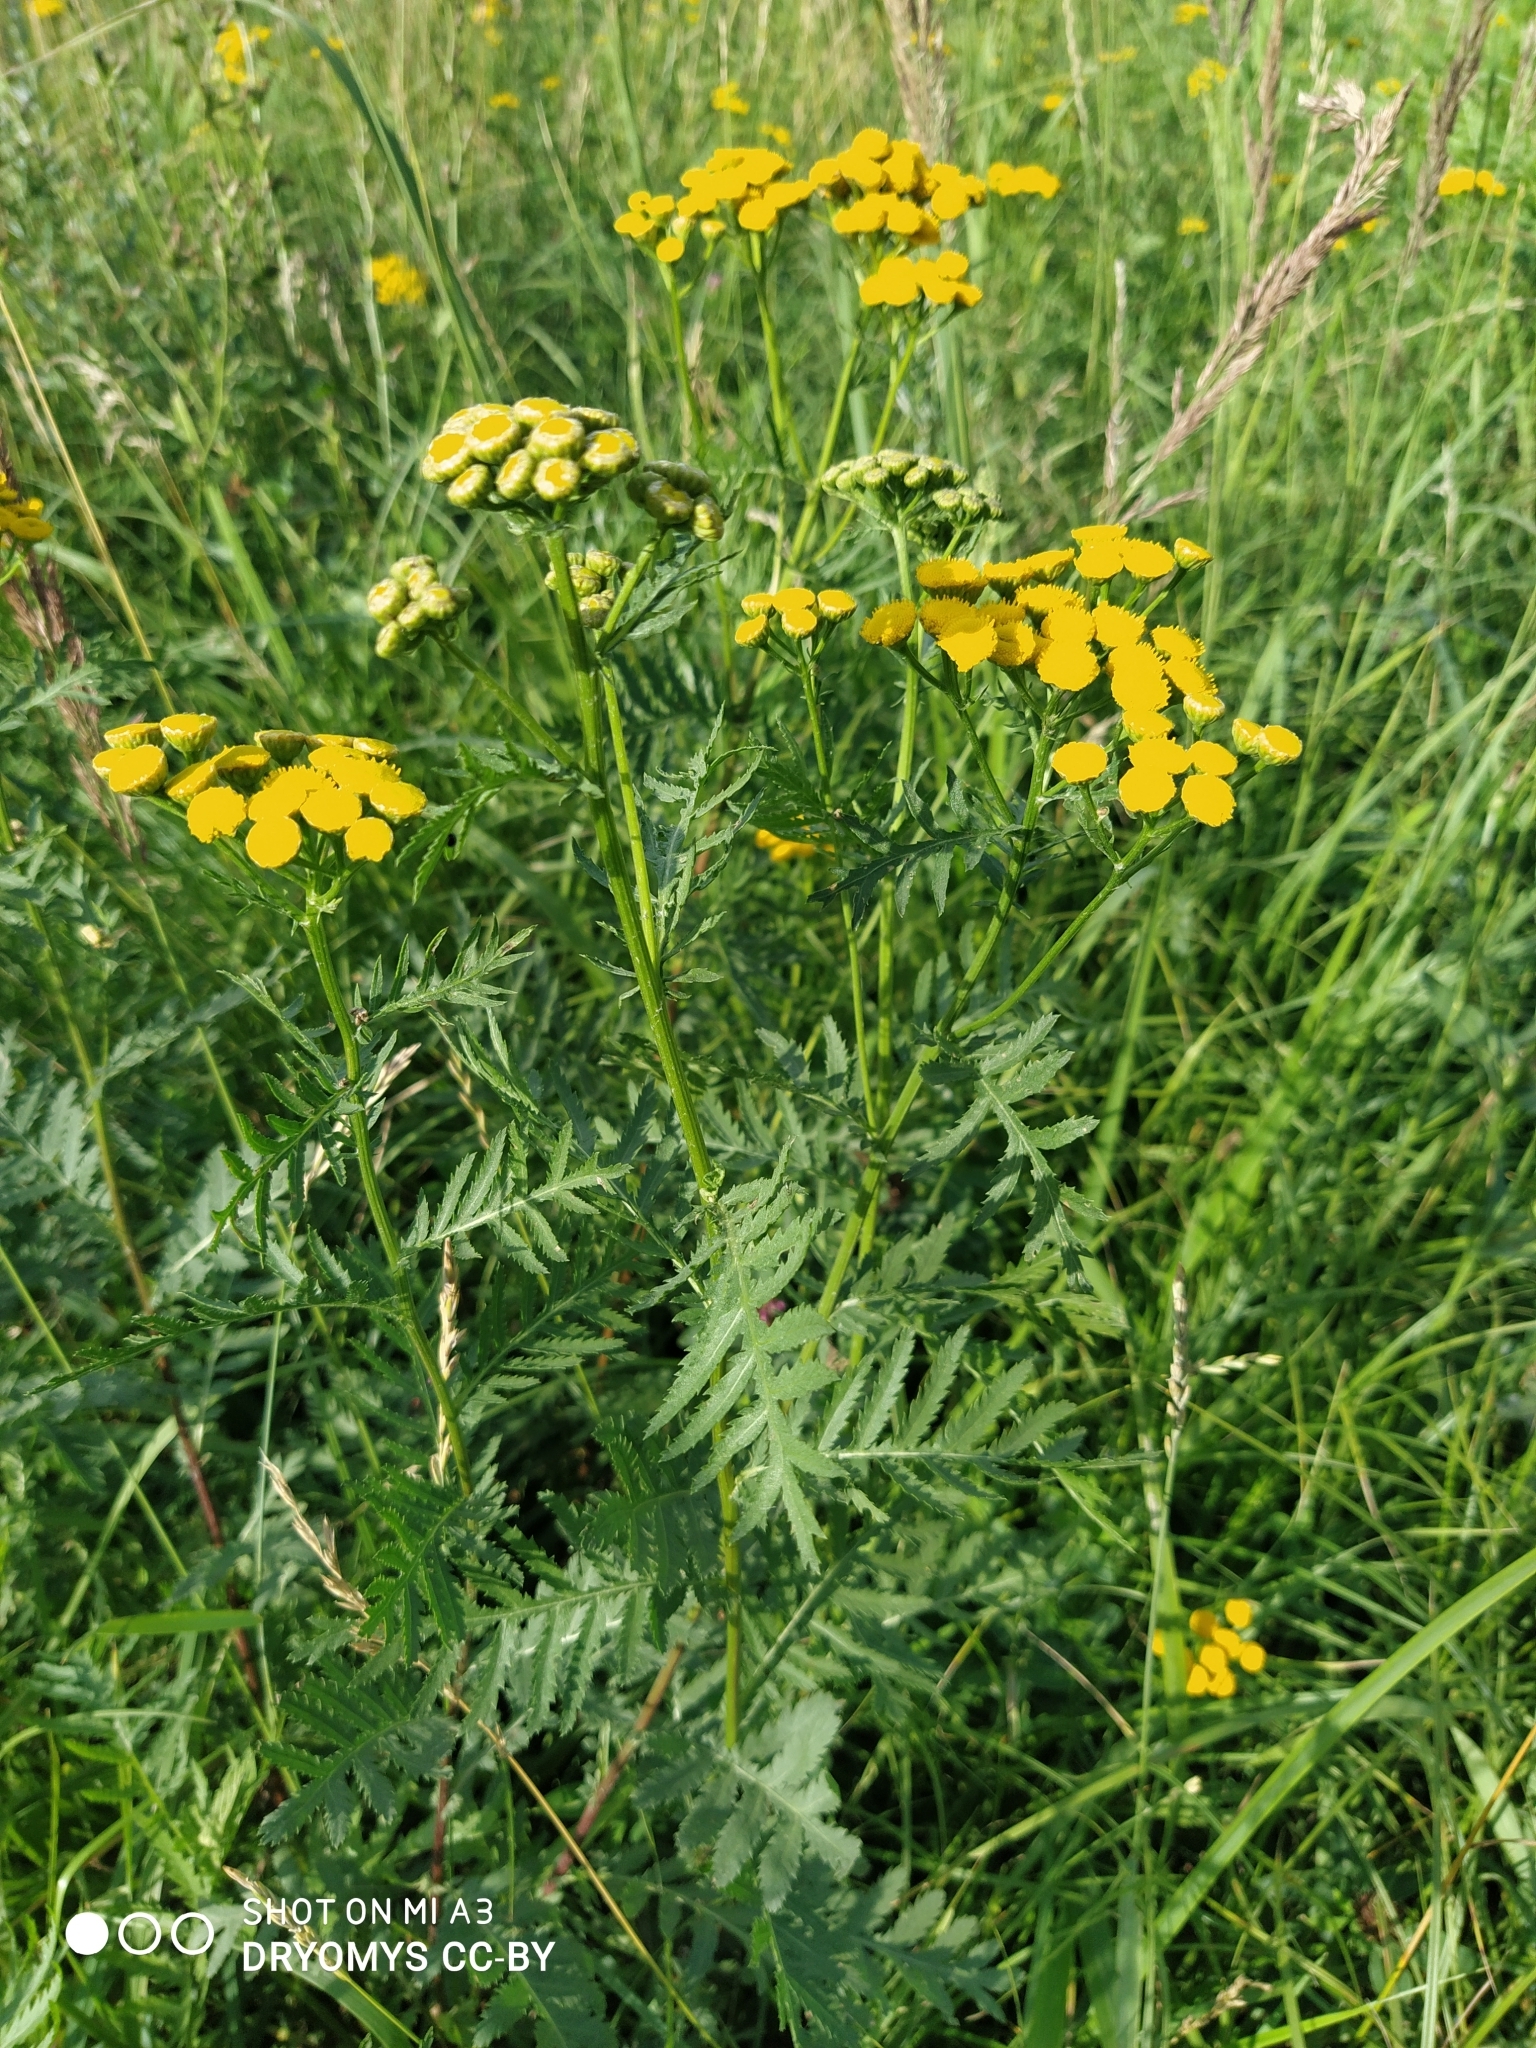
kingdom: Plantae
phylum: Tracheophyta
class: Magnoliopsida
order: Asterales
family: Asteraceae
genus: Tanacetum
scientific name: Tanacetum vulgare
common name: Common tansy
